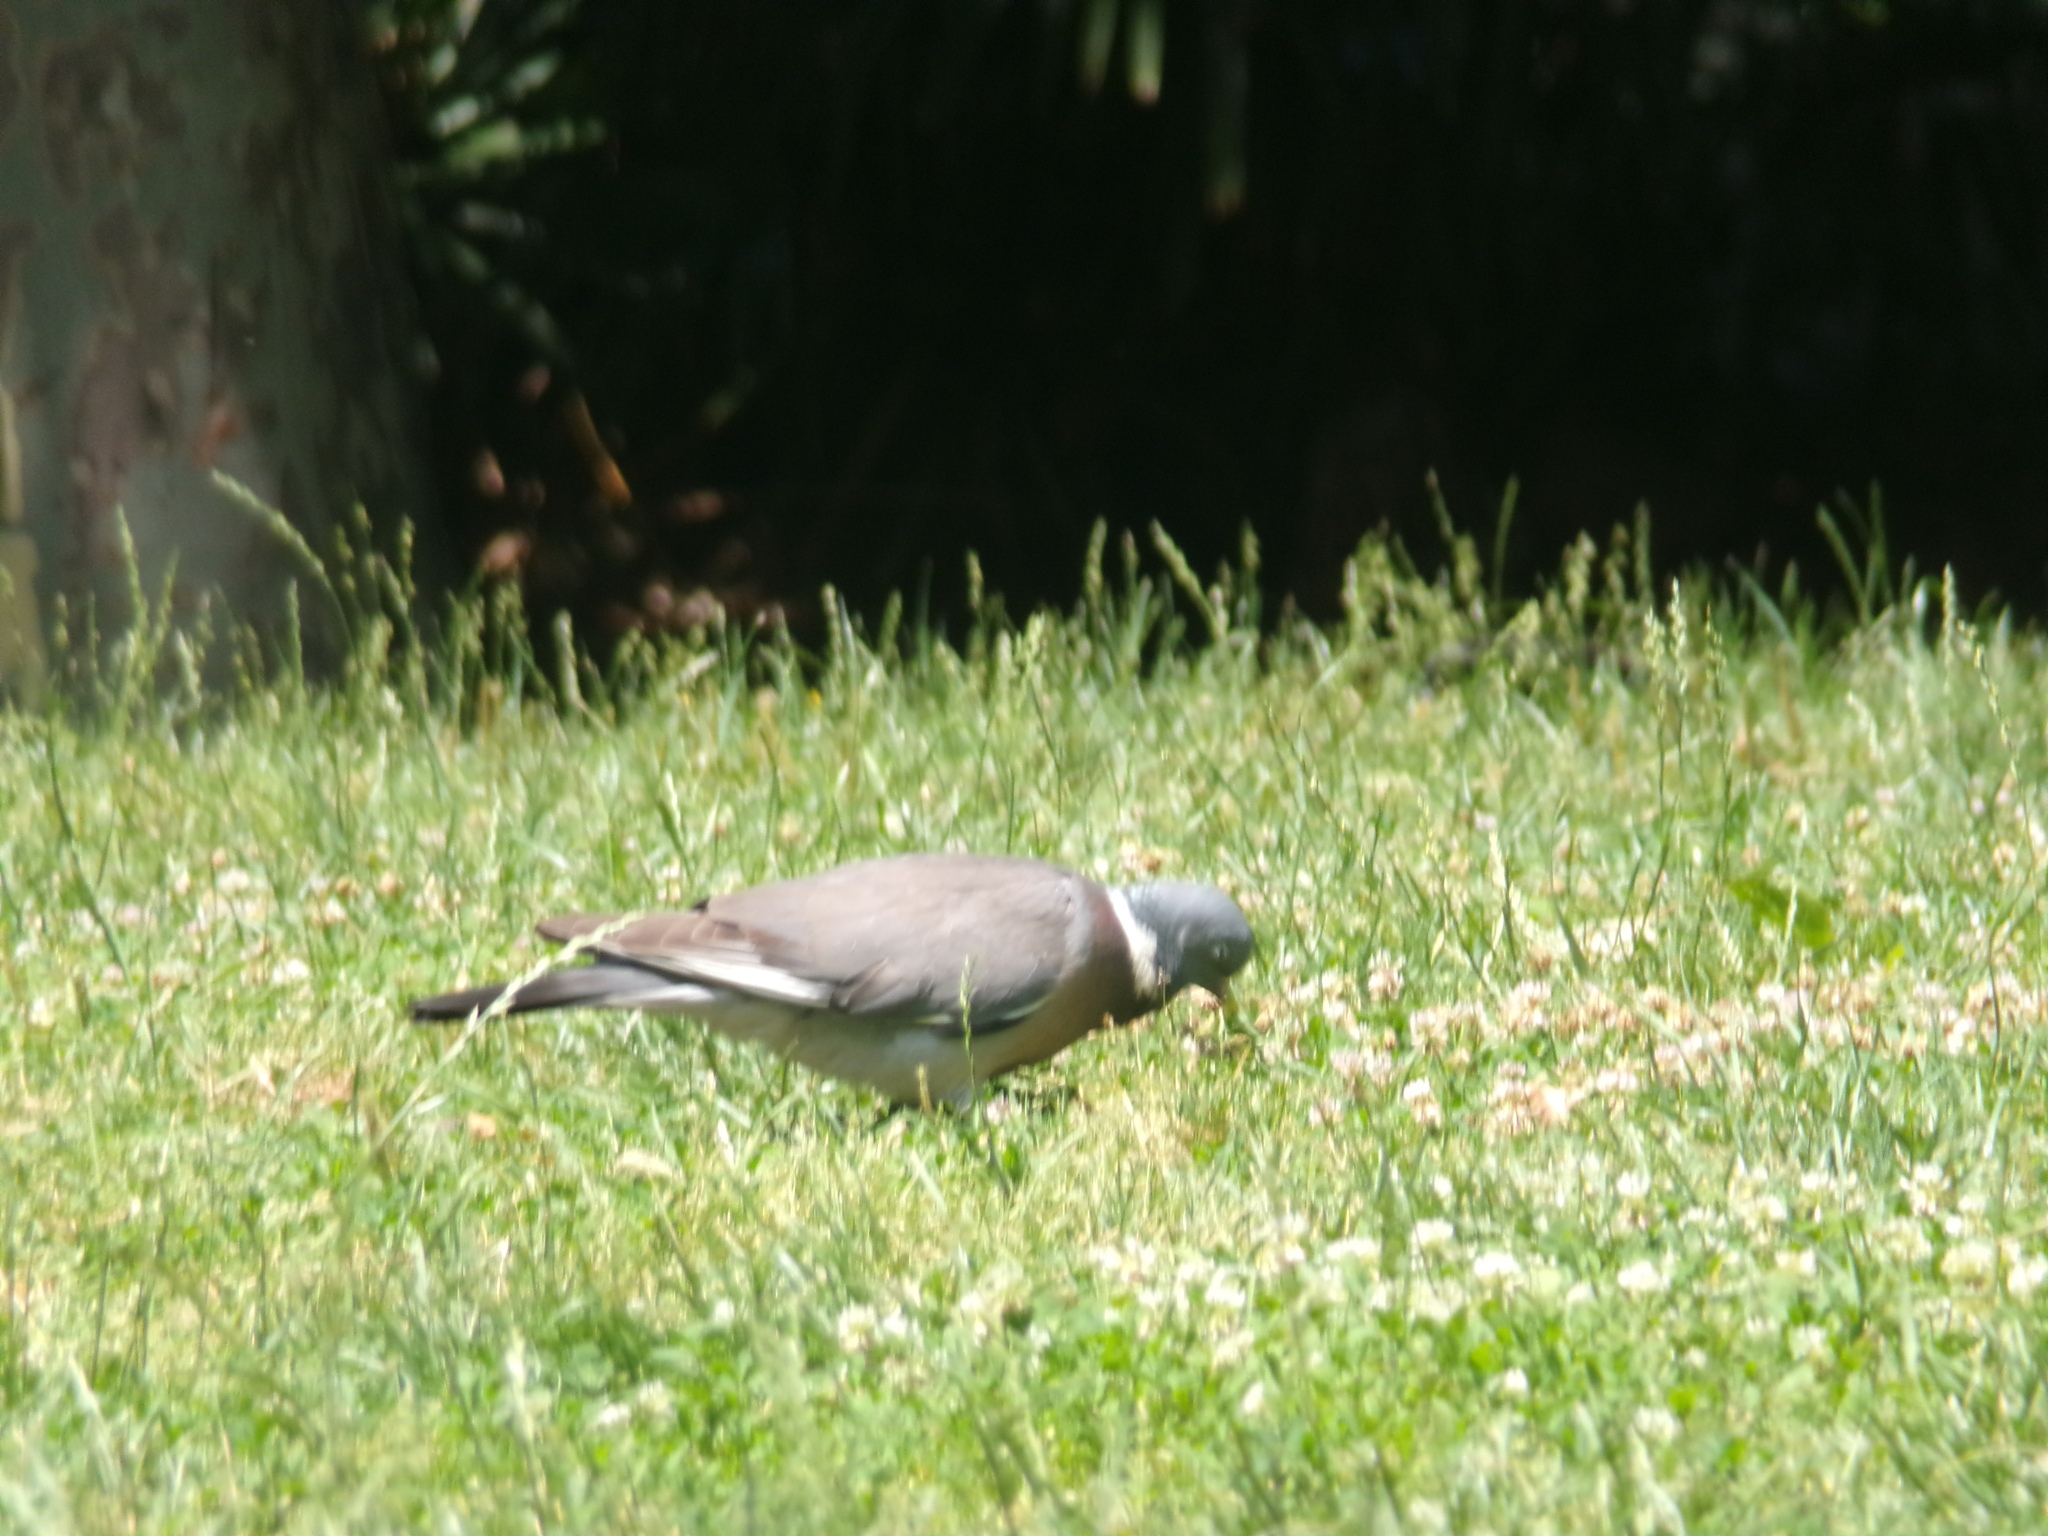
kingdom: Animalia
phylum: Chordata
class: Aves
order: Columbiformes
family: Columbidae
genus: Columba
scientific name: Columba palumbus
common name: Common wood pigeon
